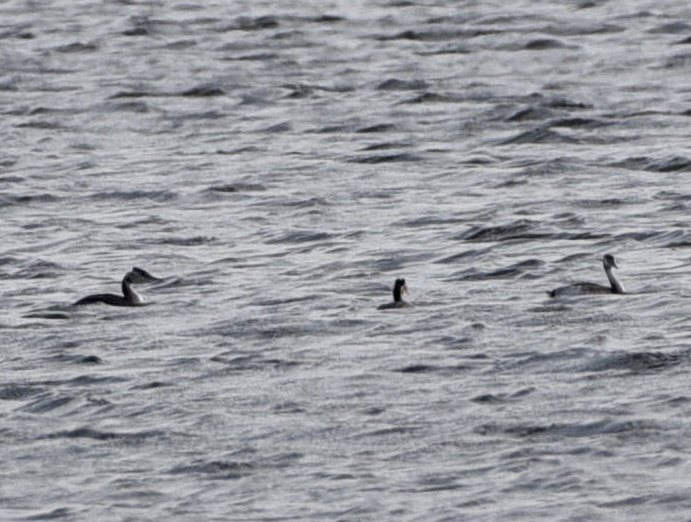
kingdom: Animalia
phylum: Chordata
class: Aves
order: Podicipediformes
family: Podicipedidae
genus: Podiceps
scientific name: Podiceps cristatus
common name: Great crested grebe
